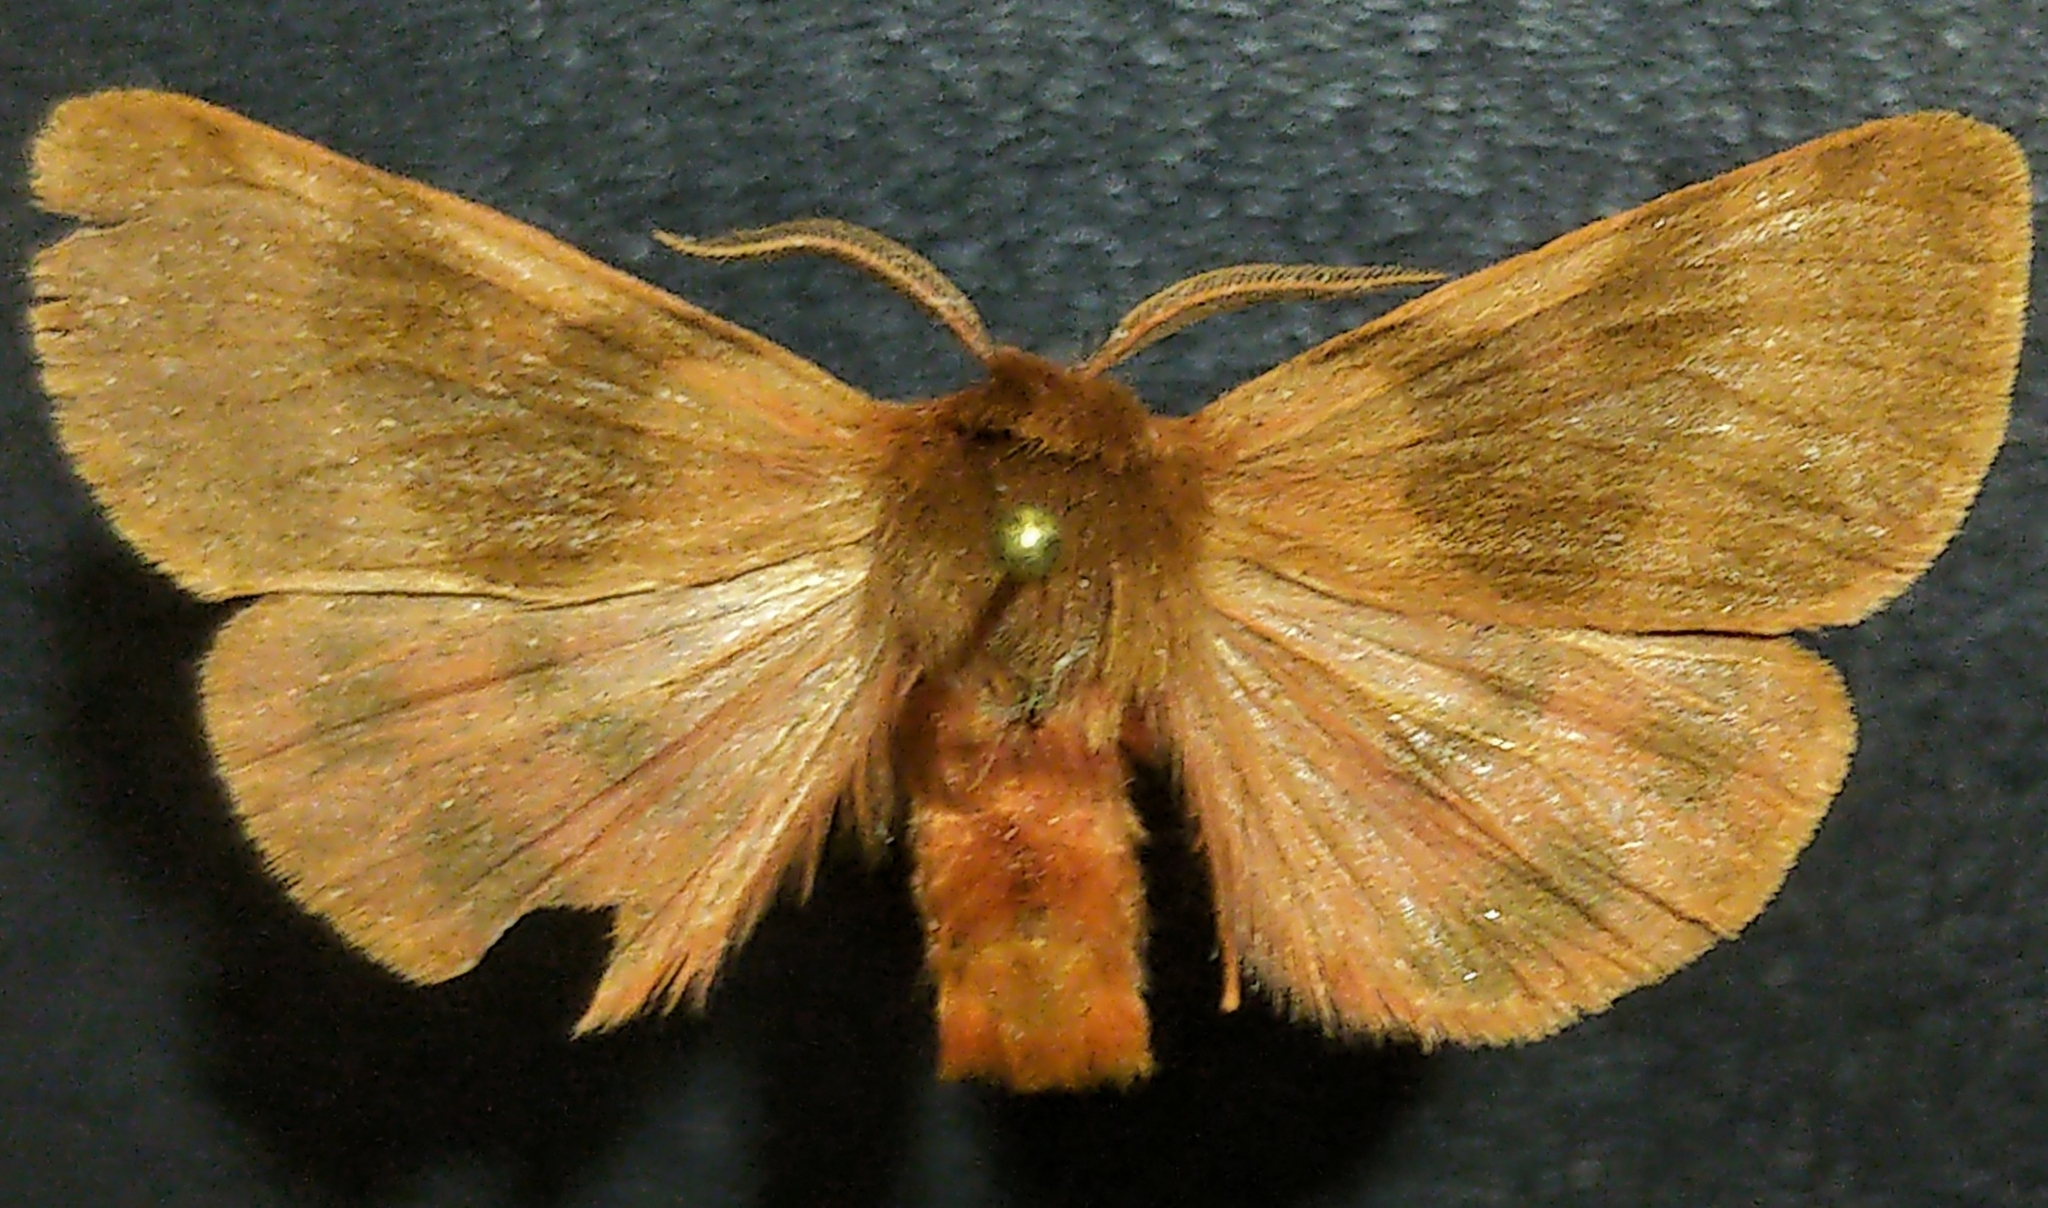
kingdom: Animalia
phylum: Arthropoda
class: Insecta
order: Lepidoptera
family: Erebidae
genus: Chelis
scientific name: Chelis beanii
